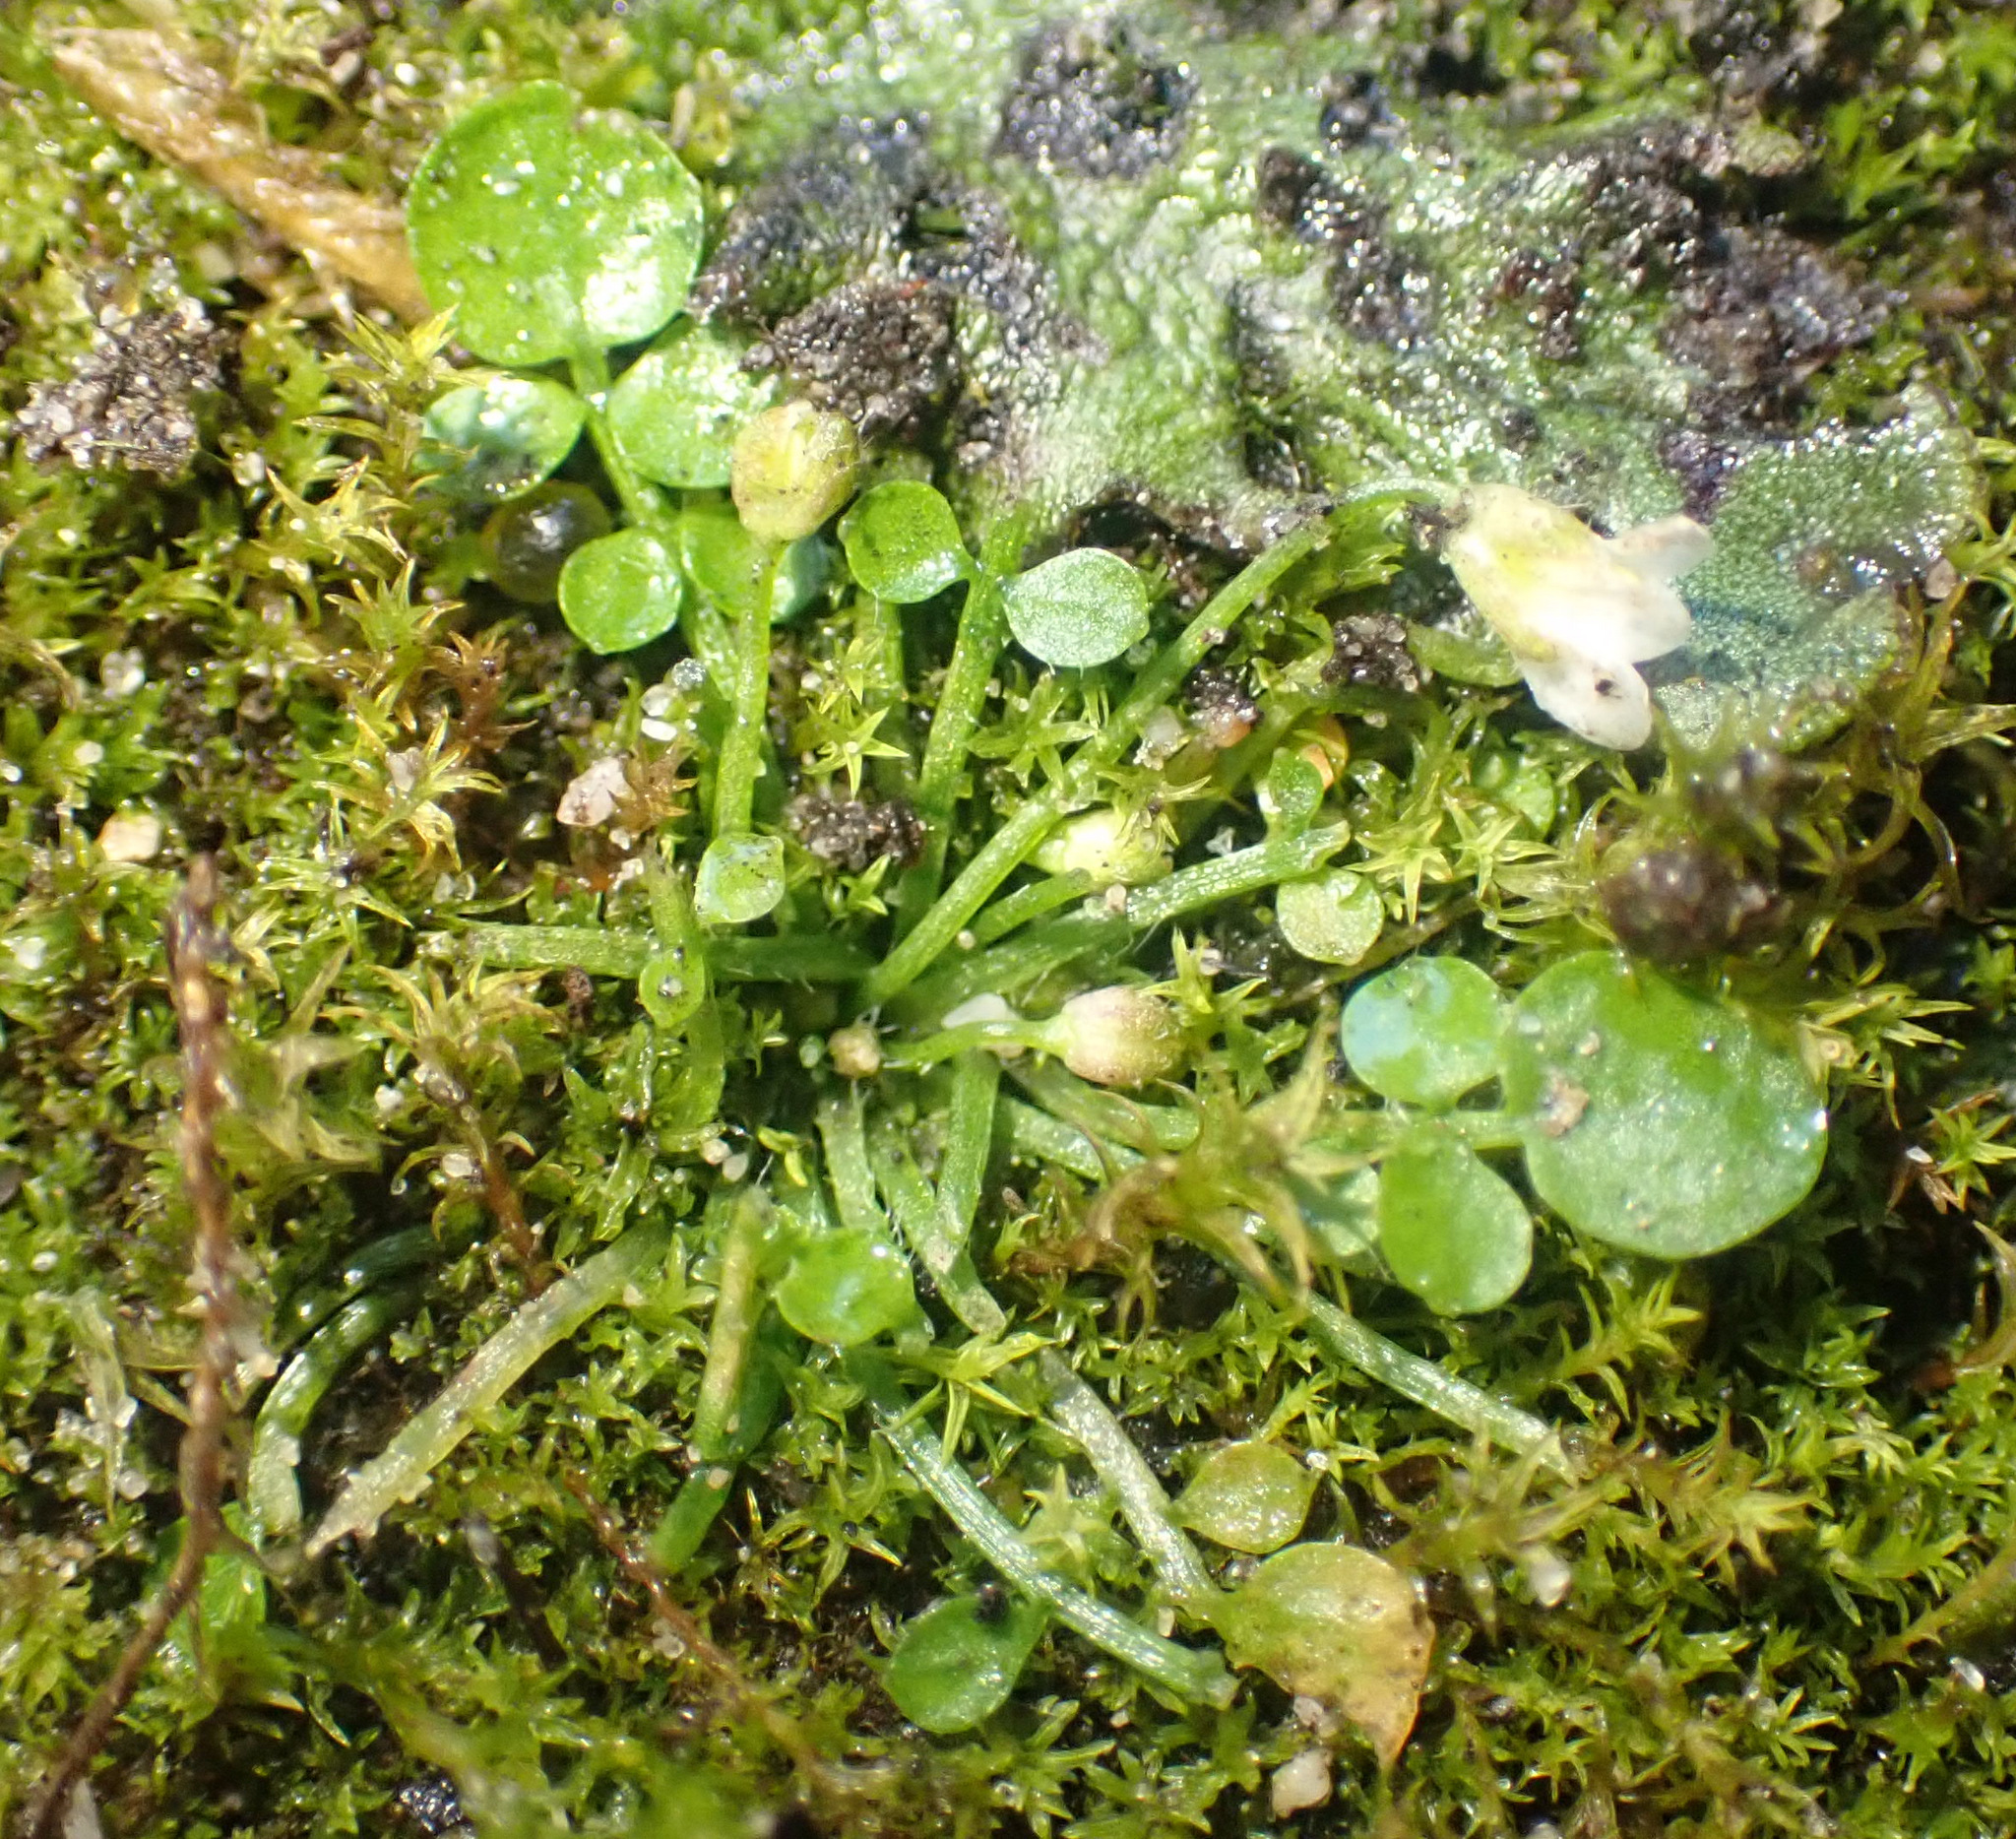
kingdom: Plantae
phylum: Tracheophyta
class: Magnoliopsida
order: Brassicales
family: Brassicaceae
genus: Cardamine
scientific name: Cardamine corymbosa
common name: New zealand bitter-cress
